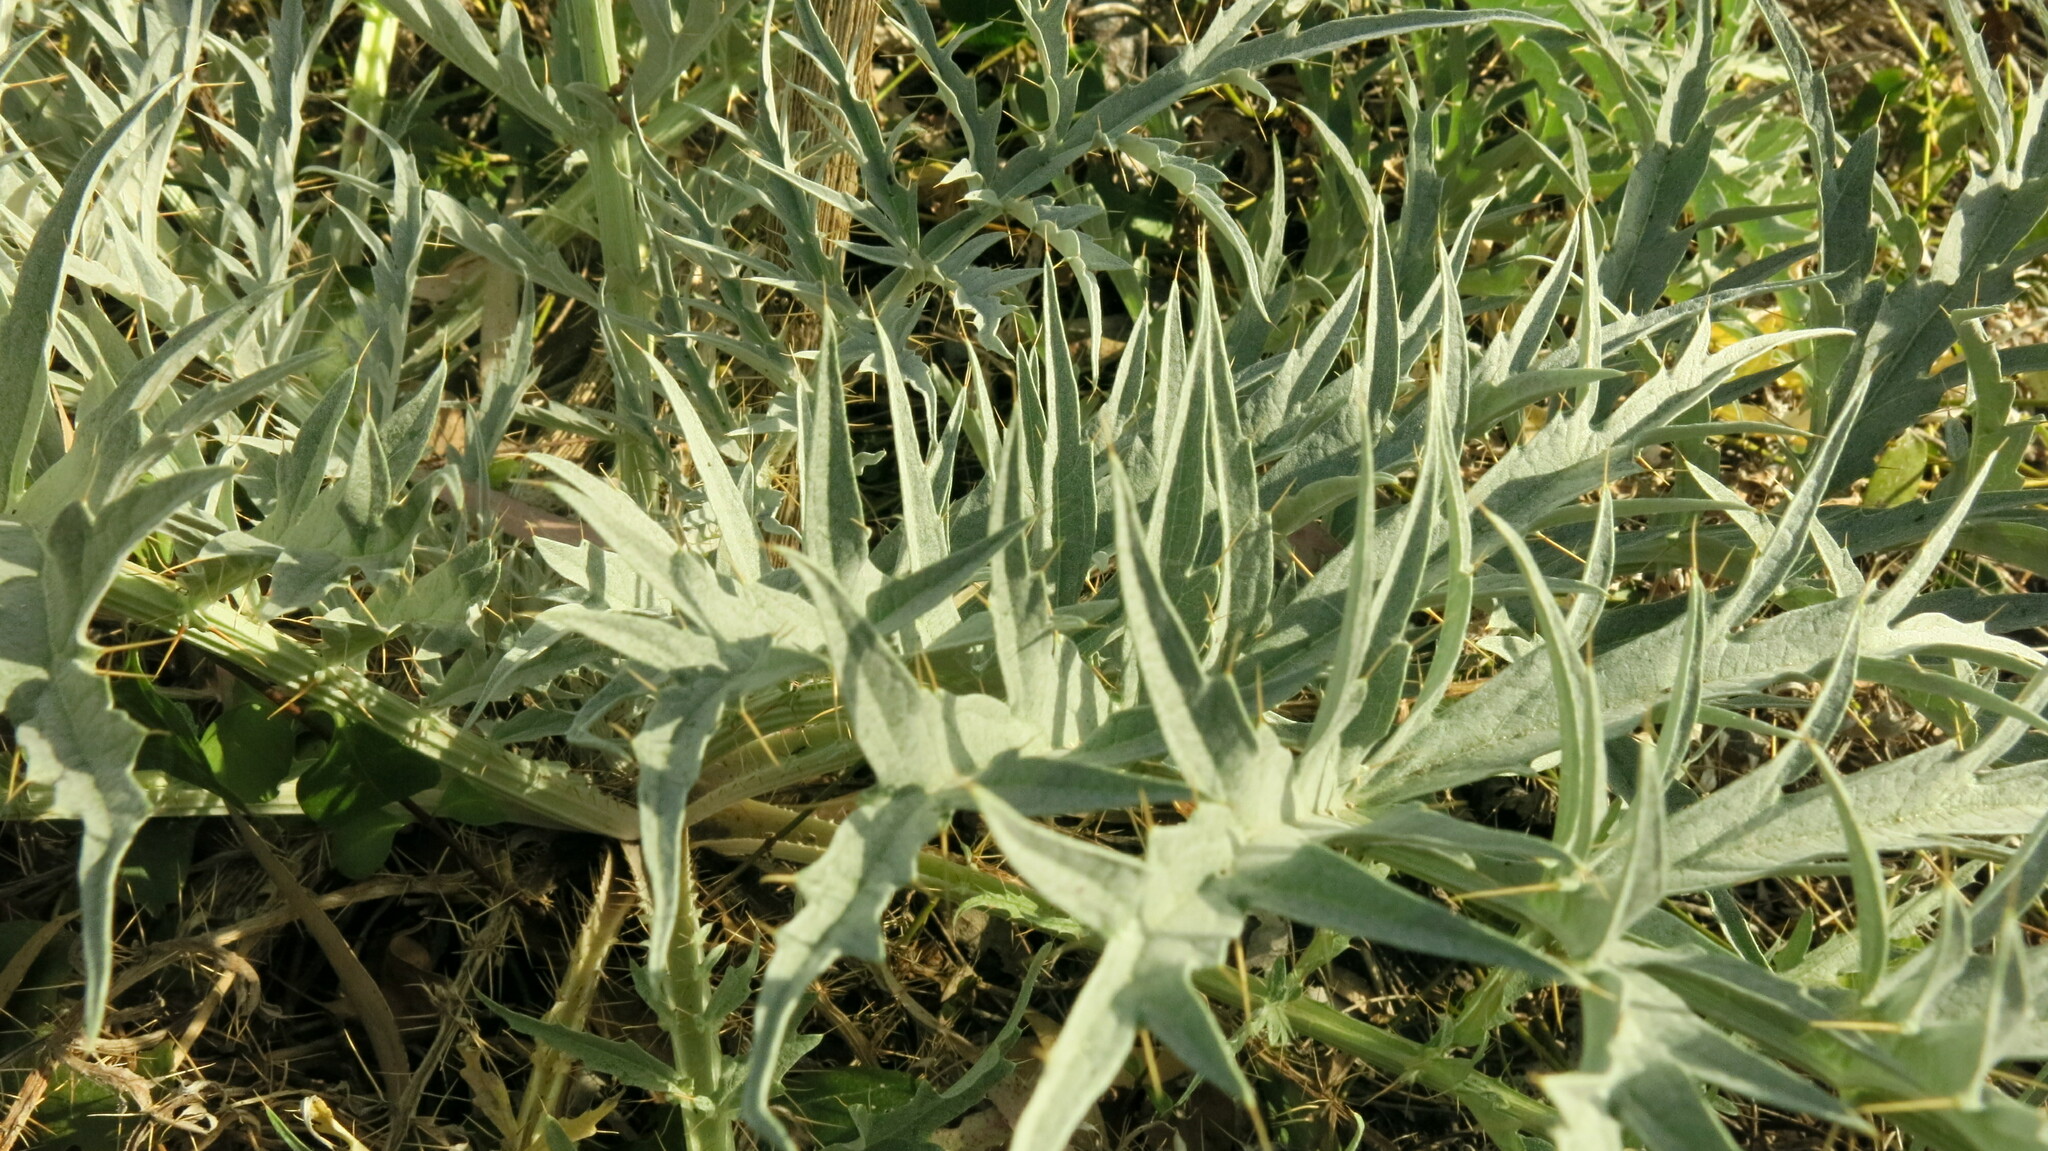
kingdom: Plantae
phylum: Tracheophyta
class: Magnoliopsida
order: Asterales
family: Asteraceae
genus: Cynara
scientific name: Cynara cardunculus
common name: Globe artichoke
